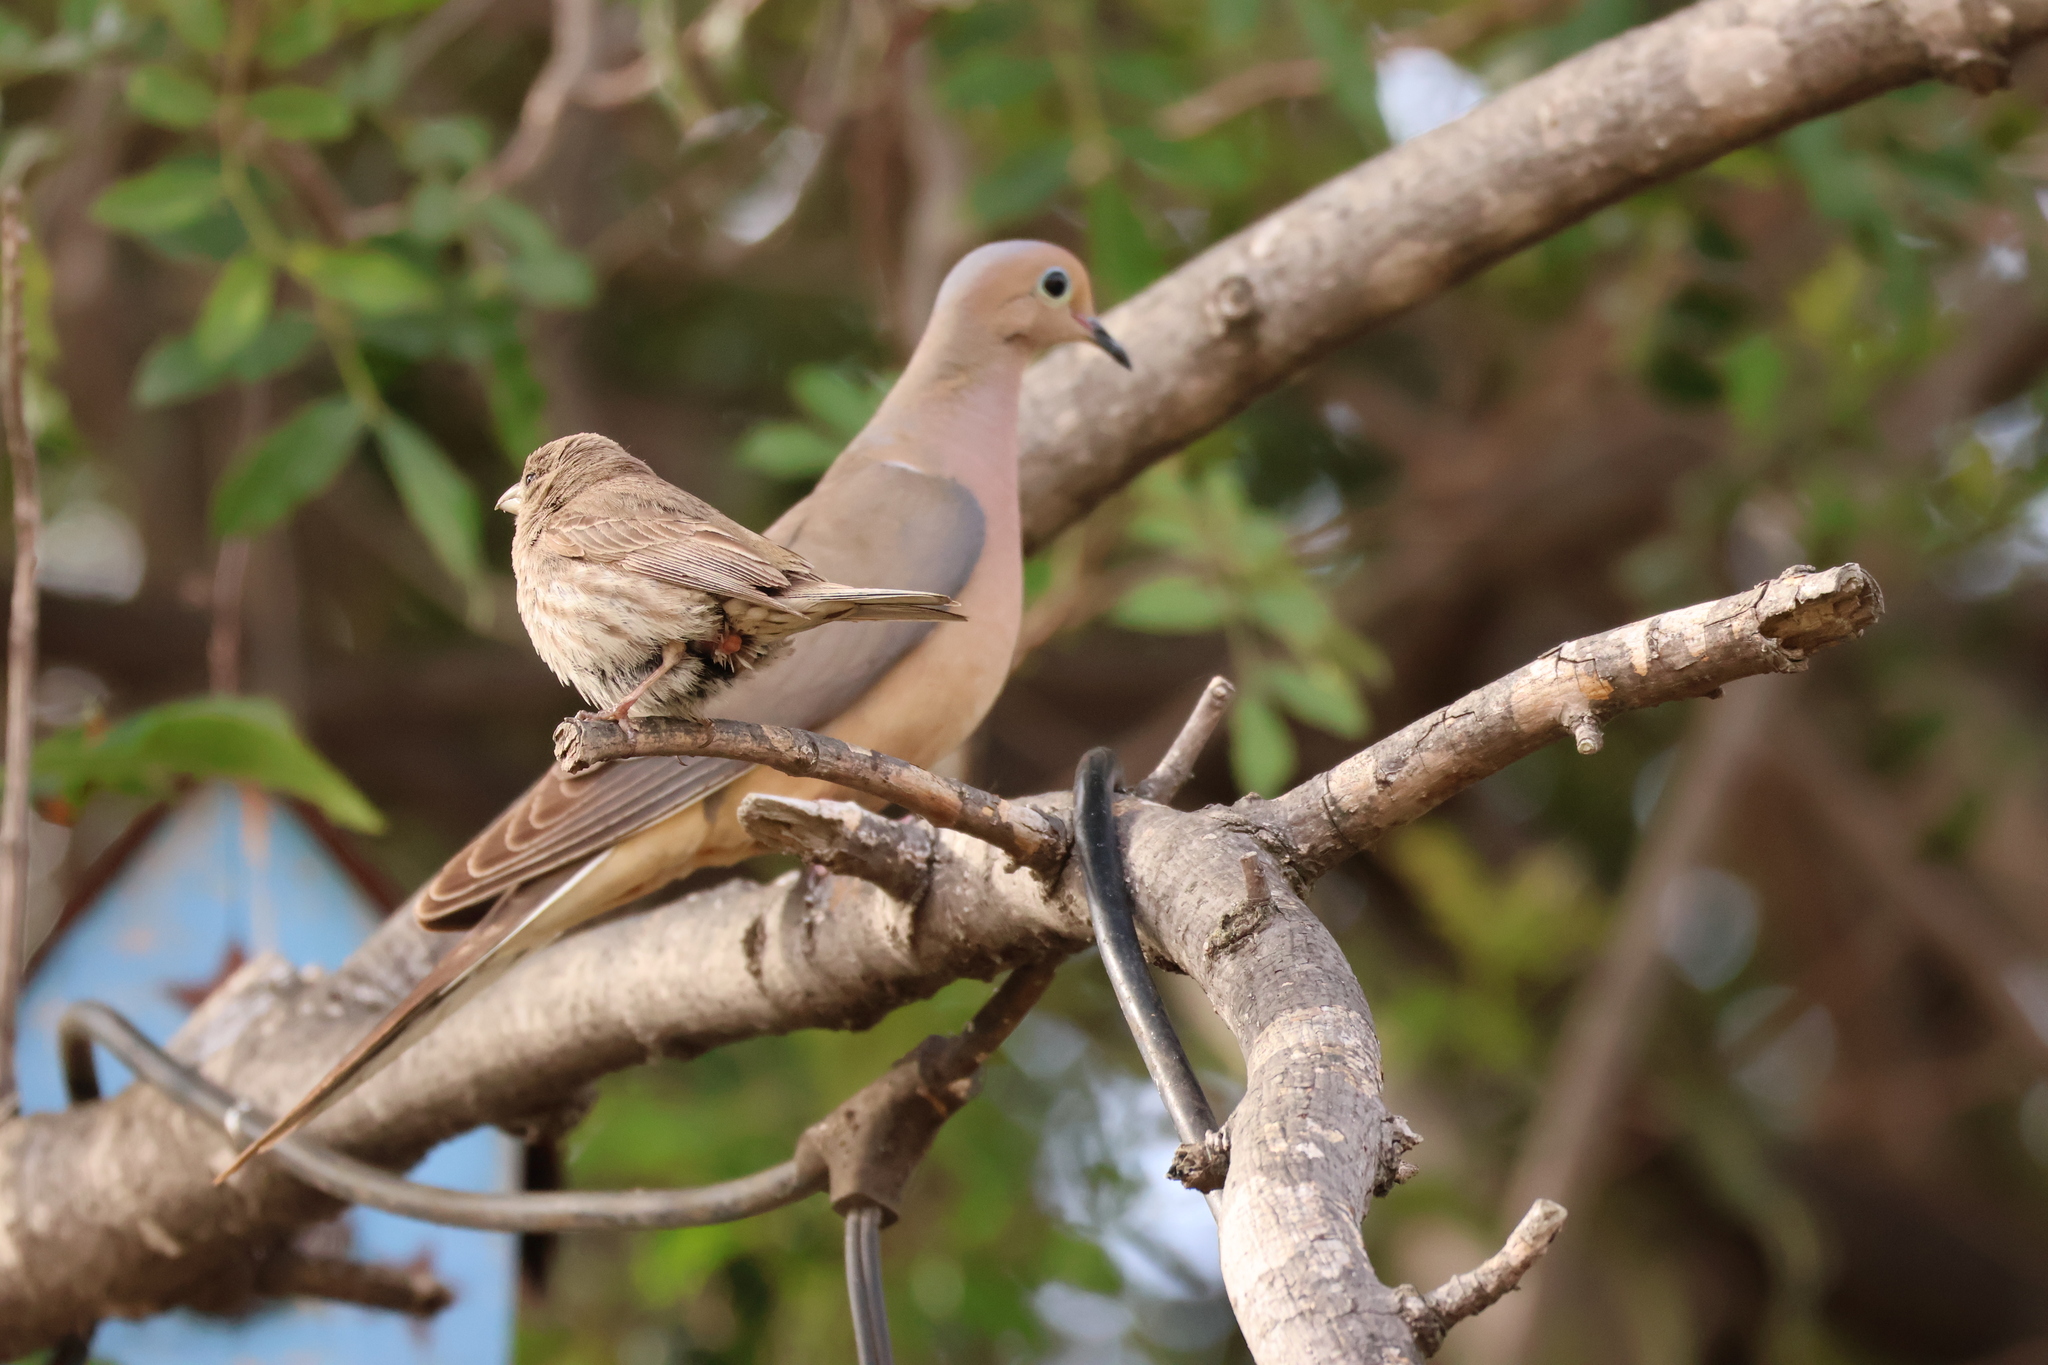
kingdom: Animalia
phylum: Chordata
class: Aves
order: Columbiformes
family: Columbidae
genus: Zenaida
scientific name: Zenaida macroura
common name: Mourning dove
